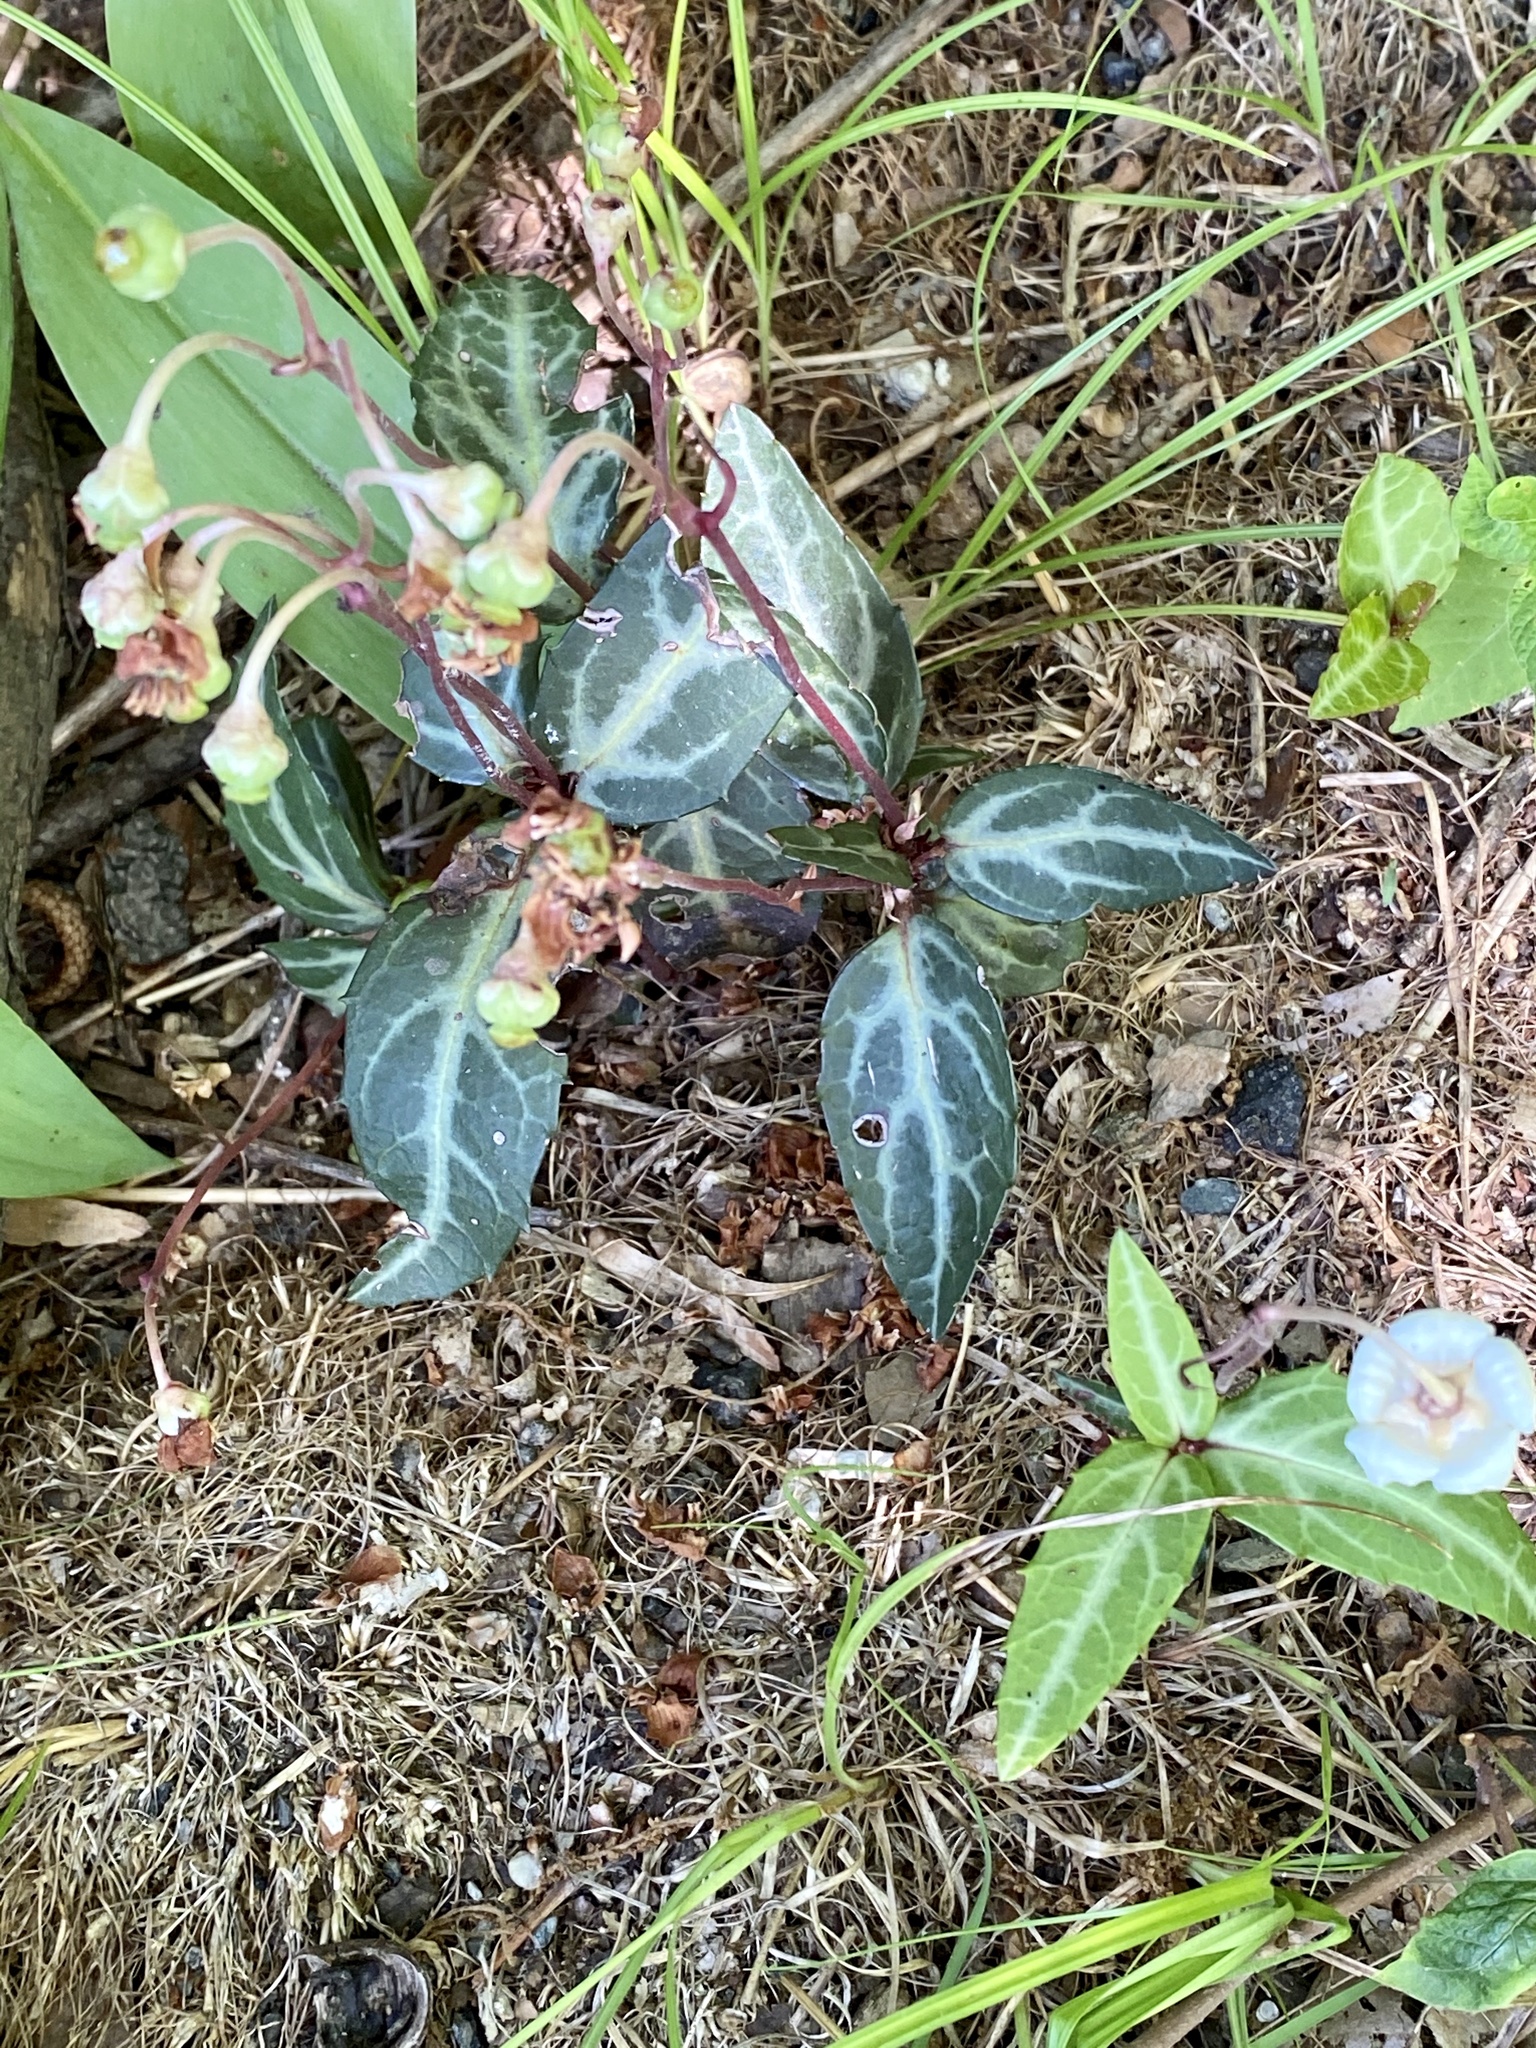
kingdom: Plantae
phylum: Tracheophyta
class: Magnoliopsida
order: Ericales
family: Ericaceae
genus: Chimaphila
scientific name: Chimaphila maculata
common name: Spotted pipsissewa
